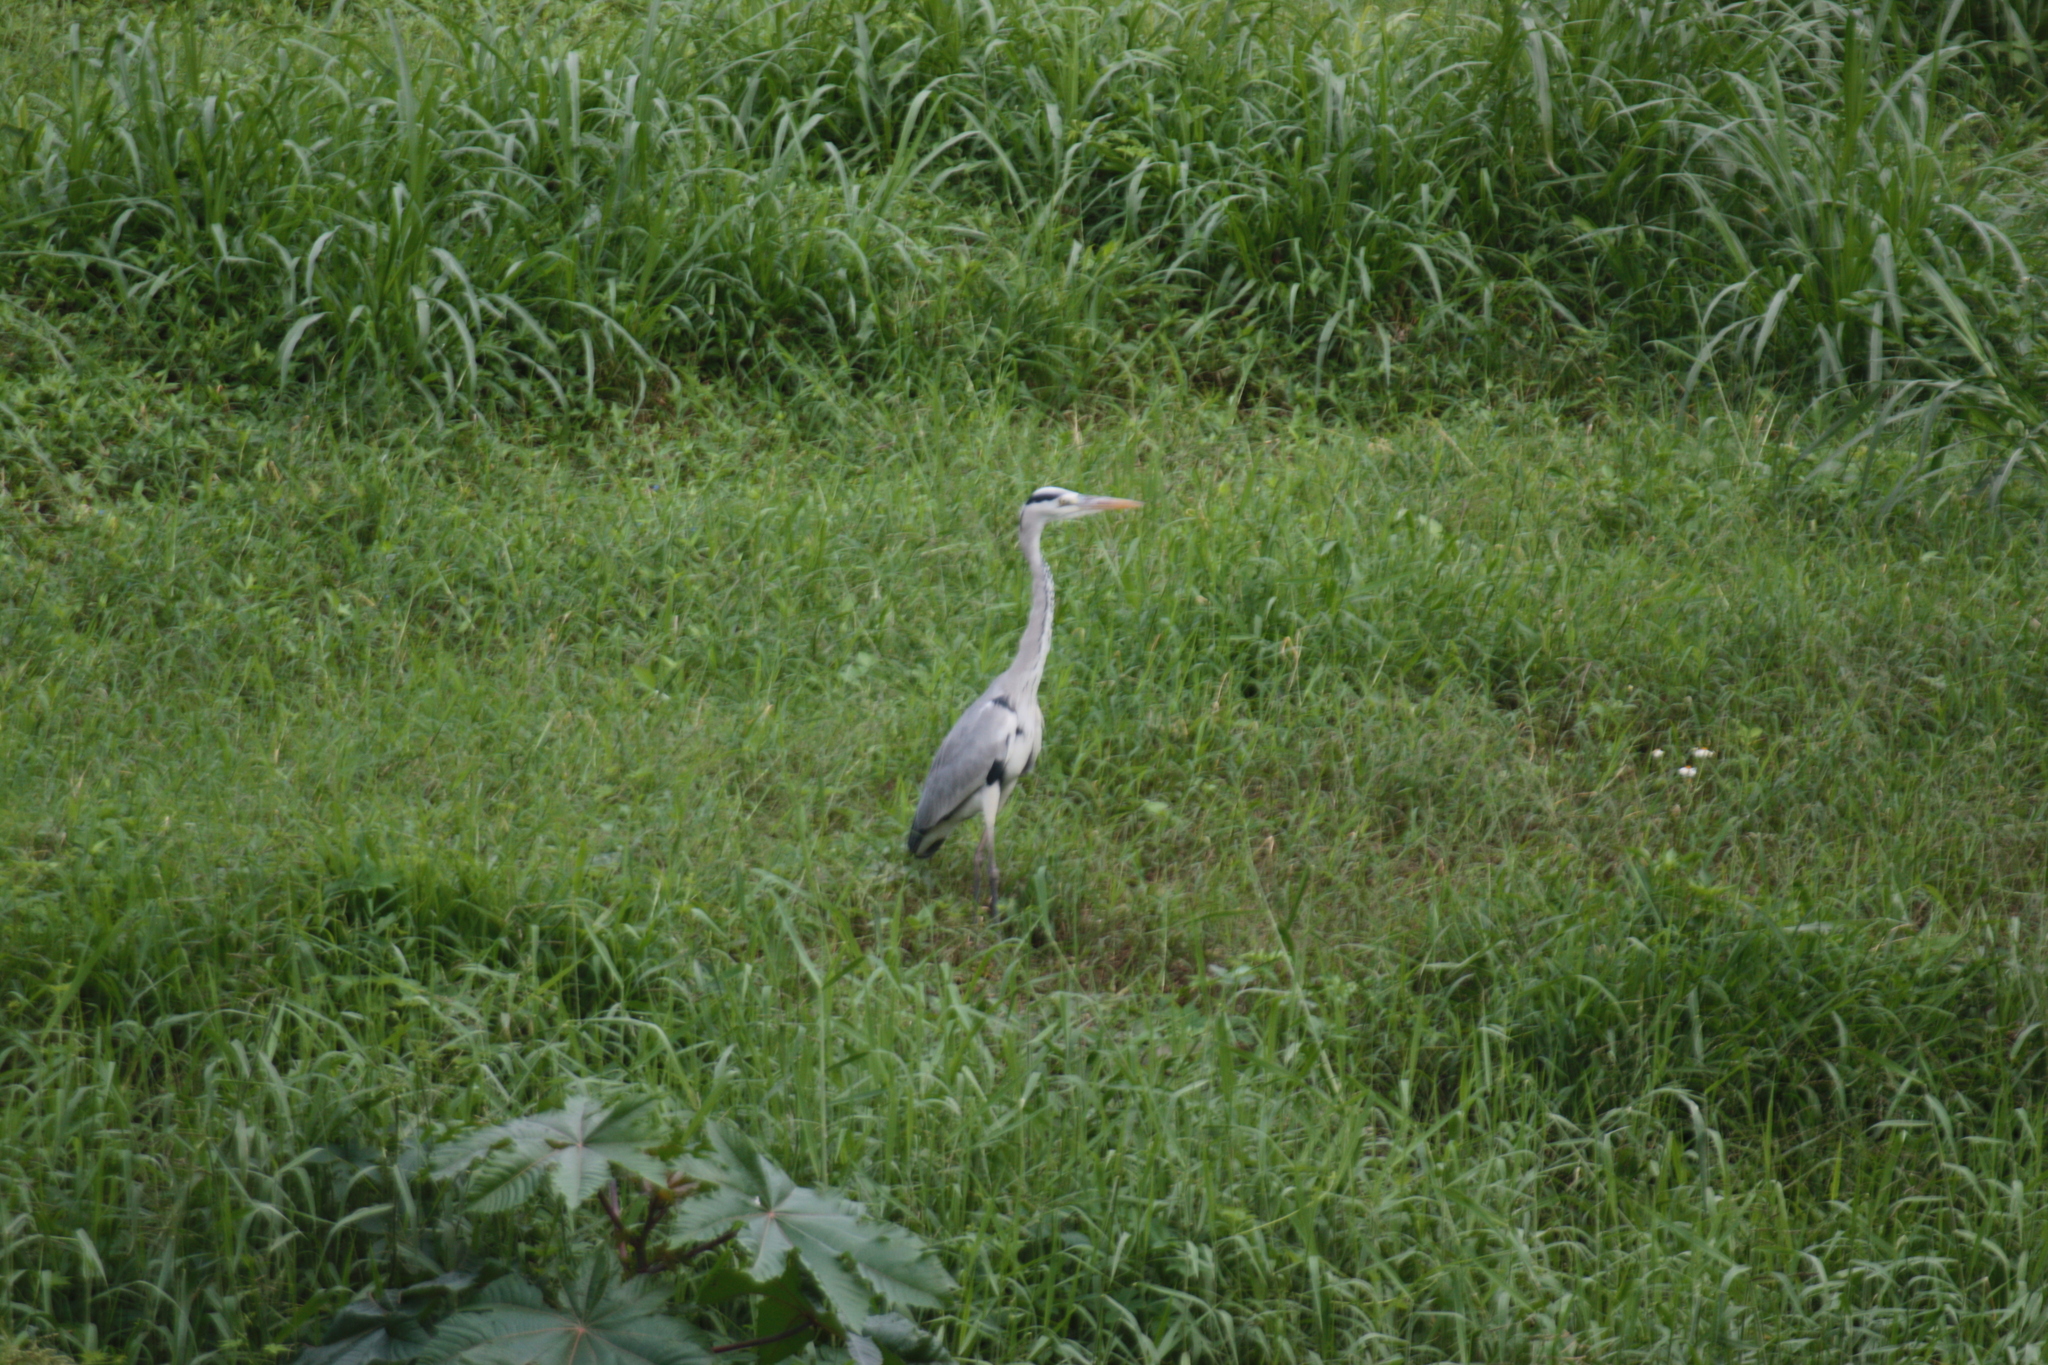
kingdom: Animalia
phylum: Chordata
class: Aves
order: Pelecaniformes
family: Ardeidae
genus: Ardea
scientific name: Ardea cinerea
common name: Grey heron
